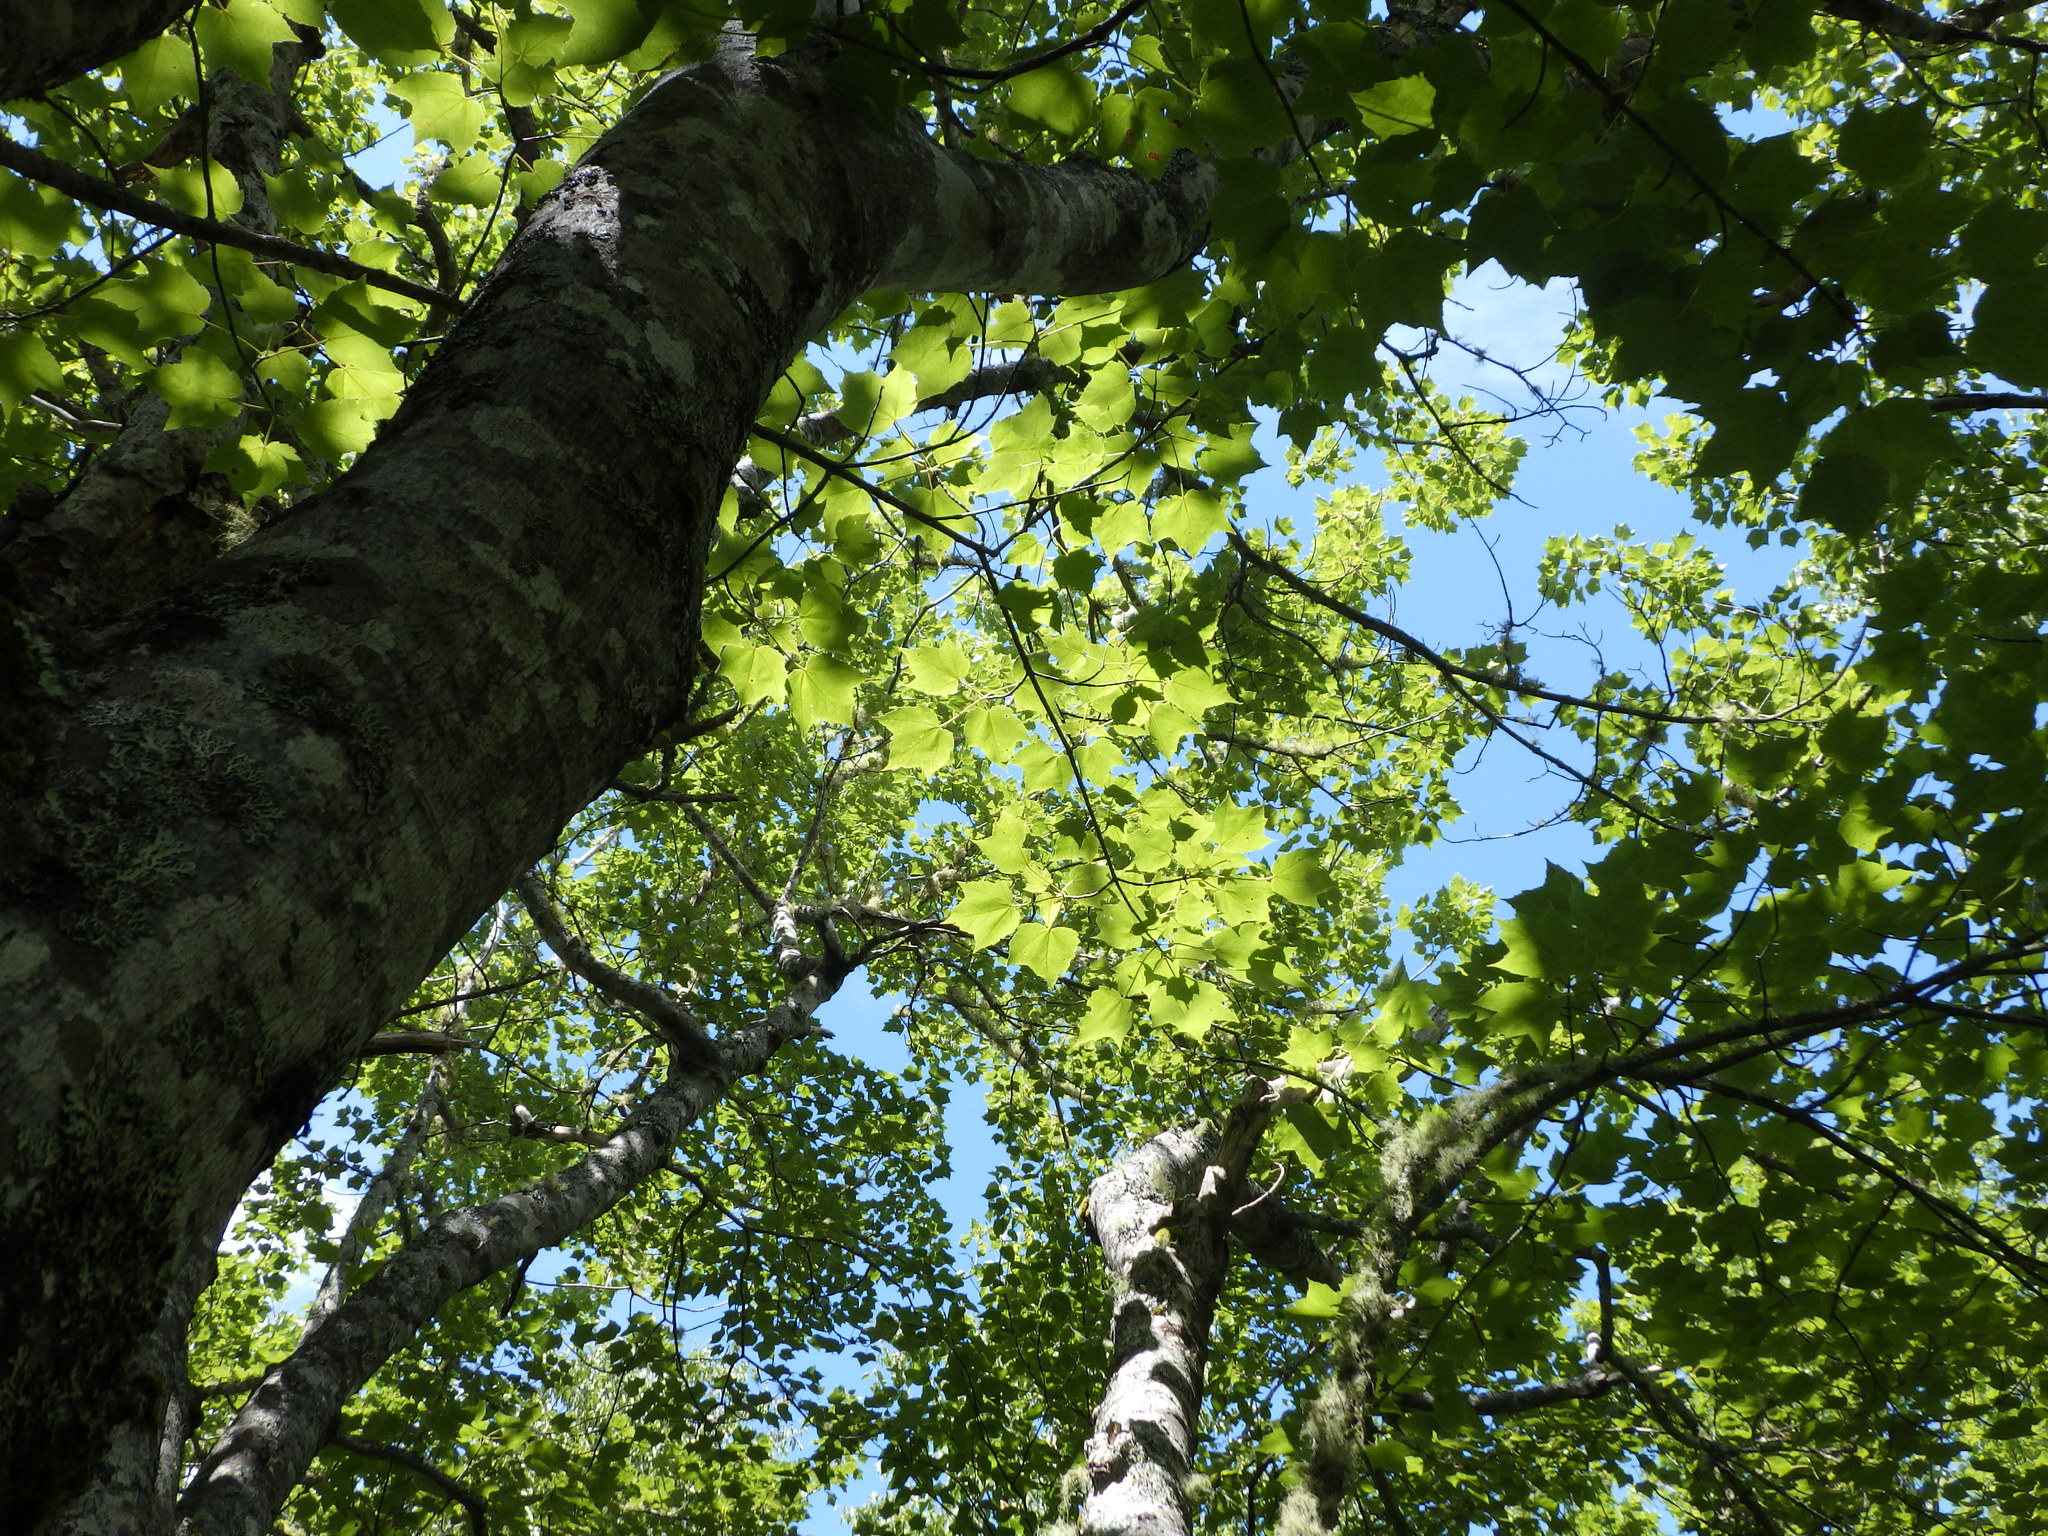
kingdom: Plantae
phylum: Tracheophyta
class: Magnoliopsida
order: Sapindales
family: Sapindaceae
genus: Acer
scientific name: Acer rubrum
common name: Red maple
